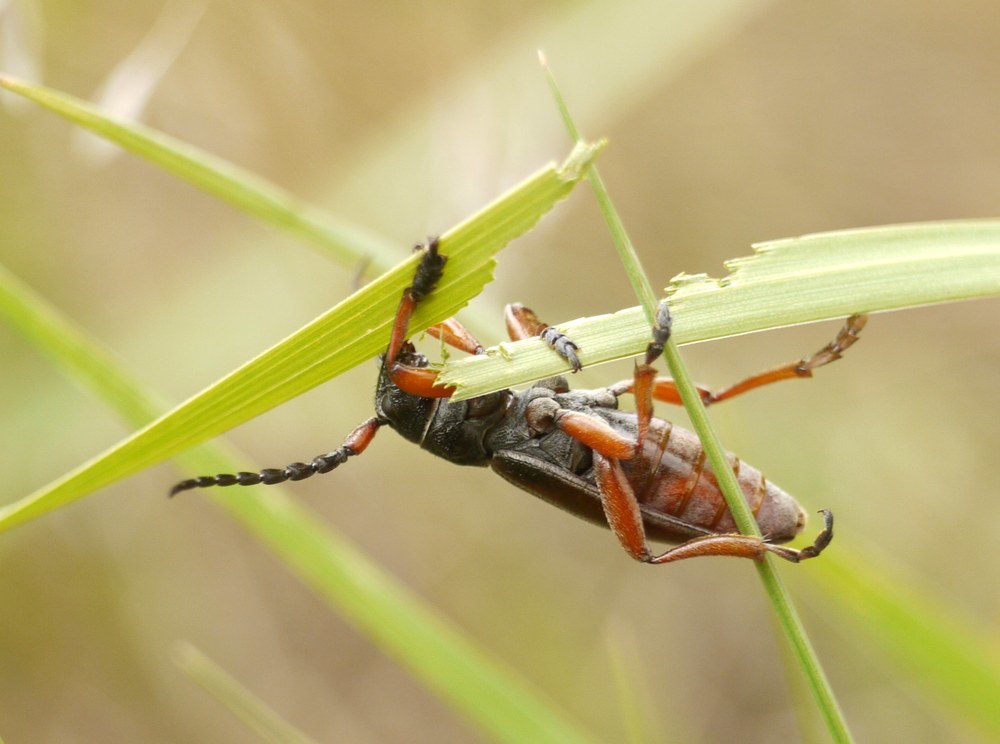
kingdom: Animalia
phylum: Arthropoda
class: Insecta
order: Coleoptera
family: Cerambycidae
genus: Dorcadion
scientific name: Dorcadion fulvum
